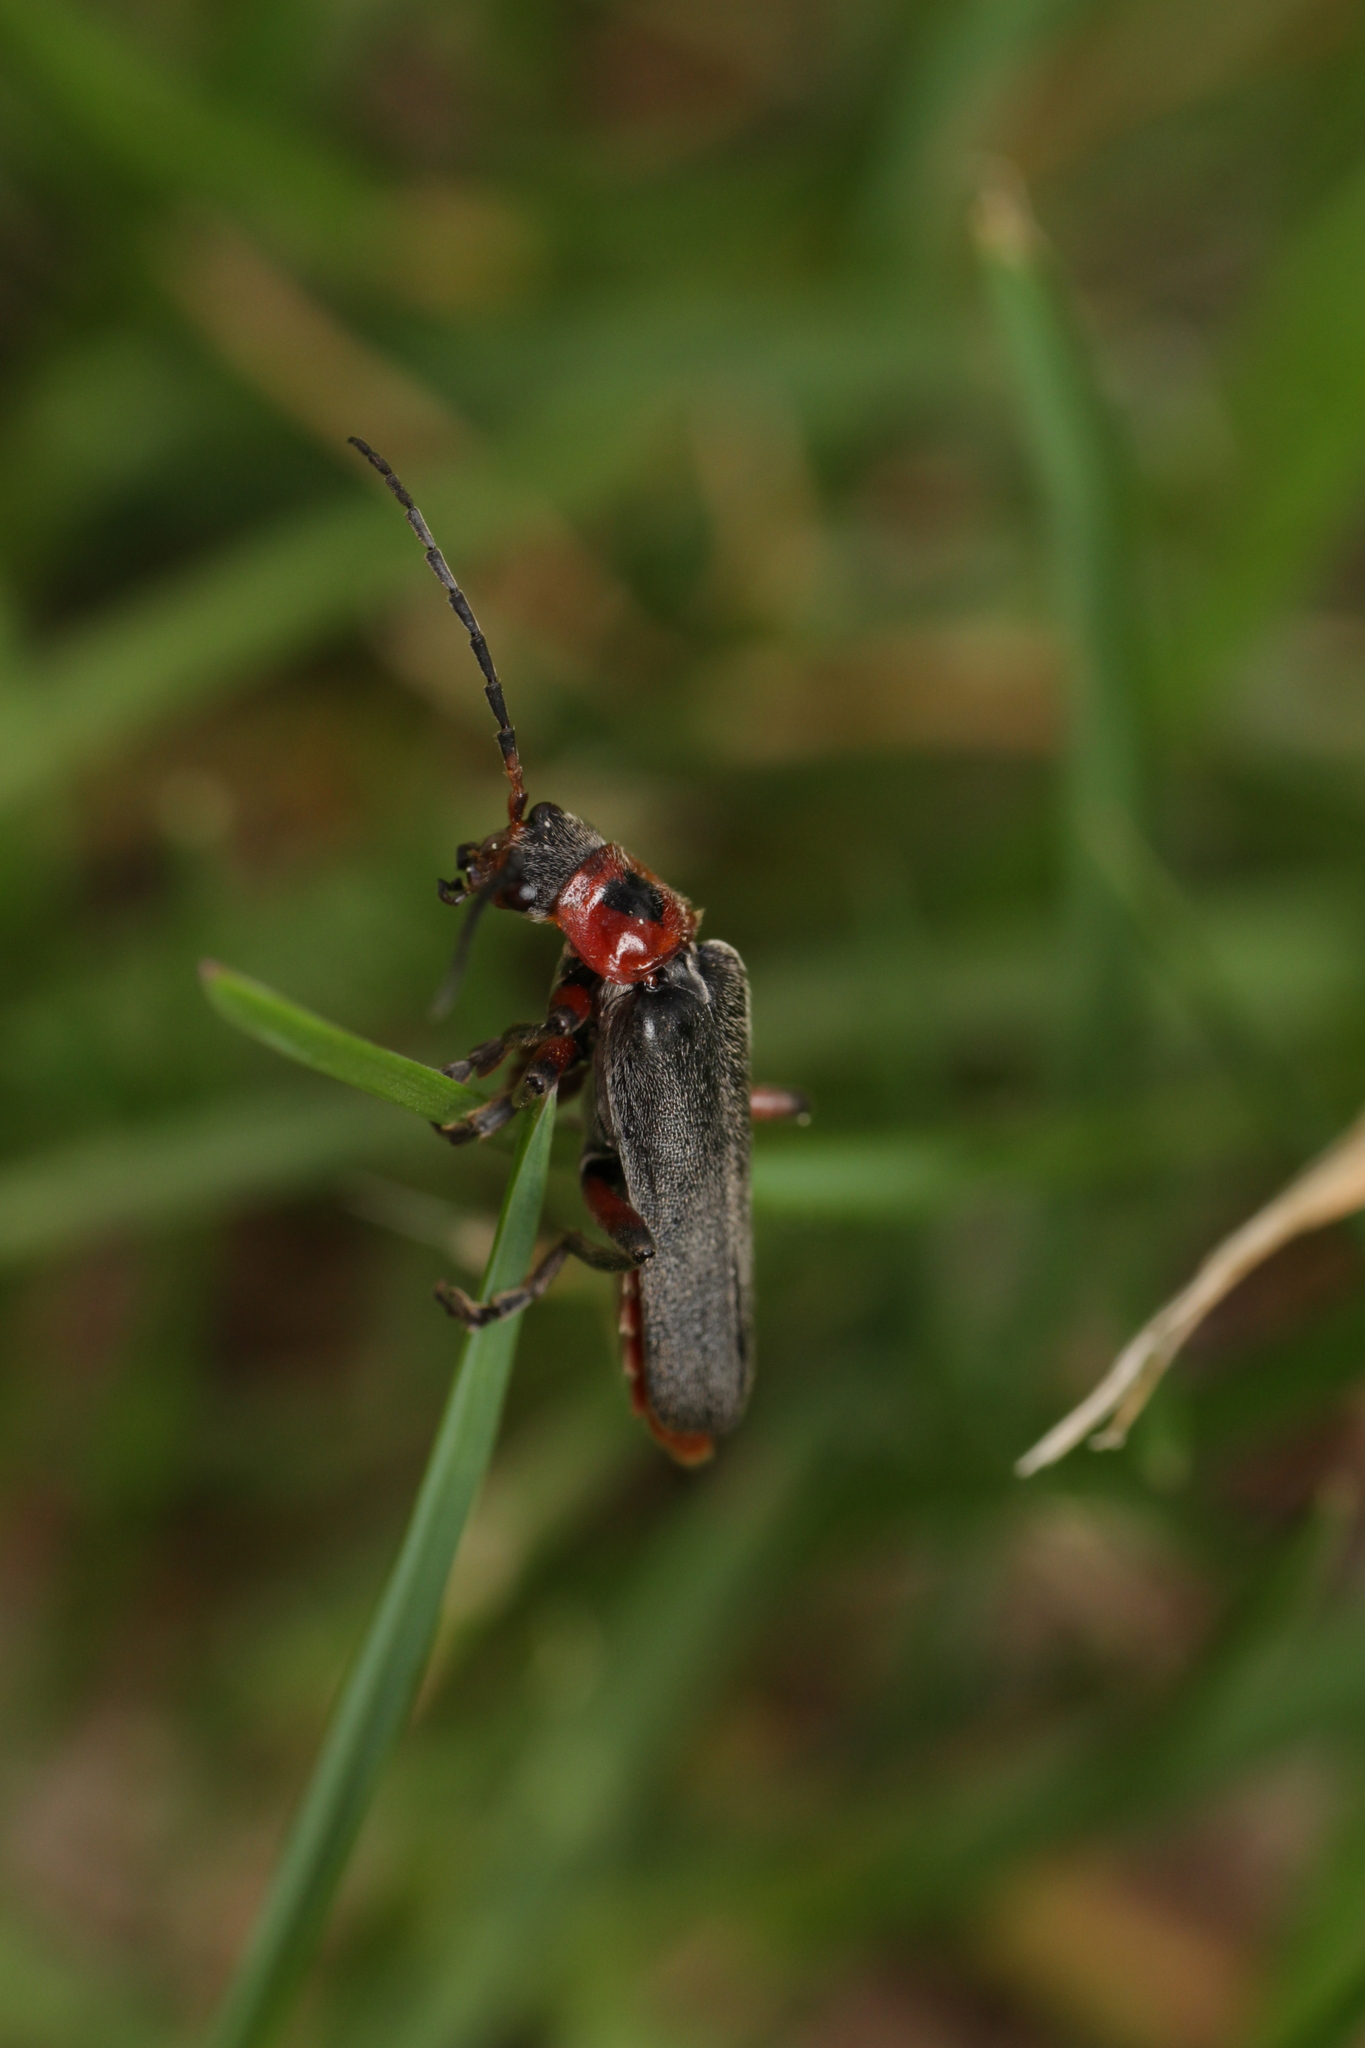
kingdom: Animalia
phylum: Arthropoda
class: Insecta
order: Coleoptera
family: Cantharidae
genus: Cantharis
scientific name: Cantharis rustica
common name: Soldier beetle
